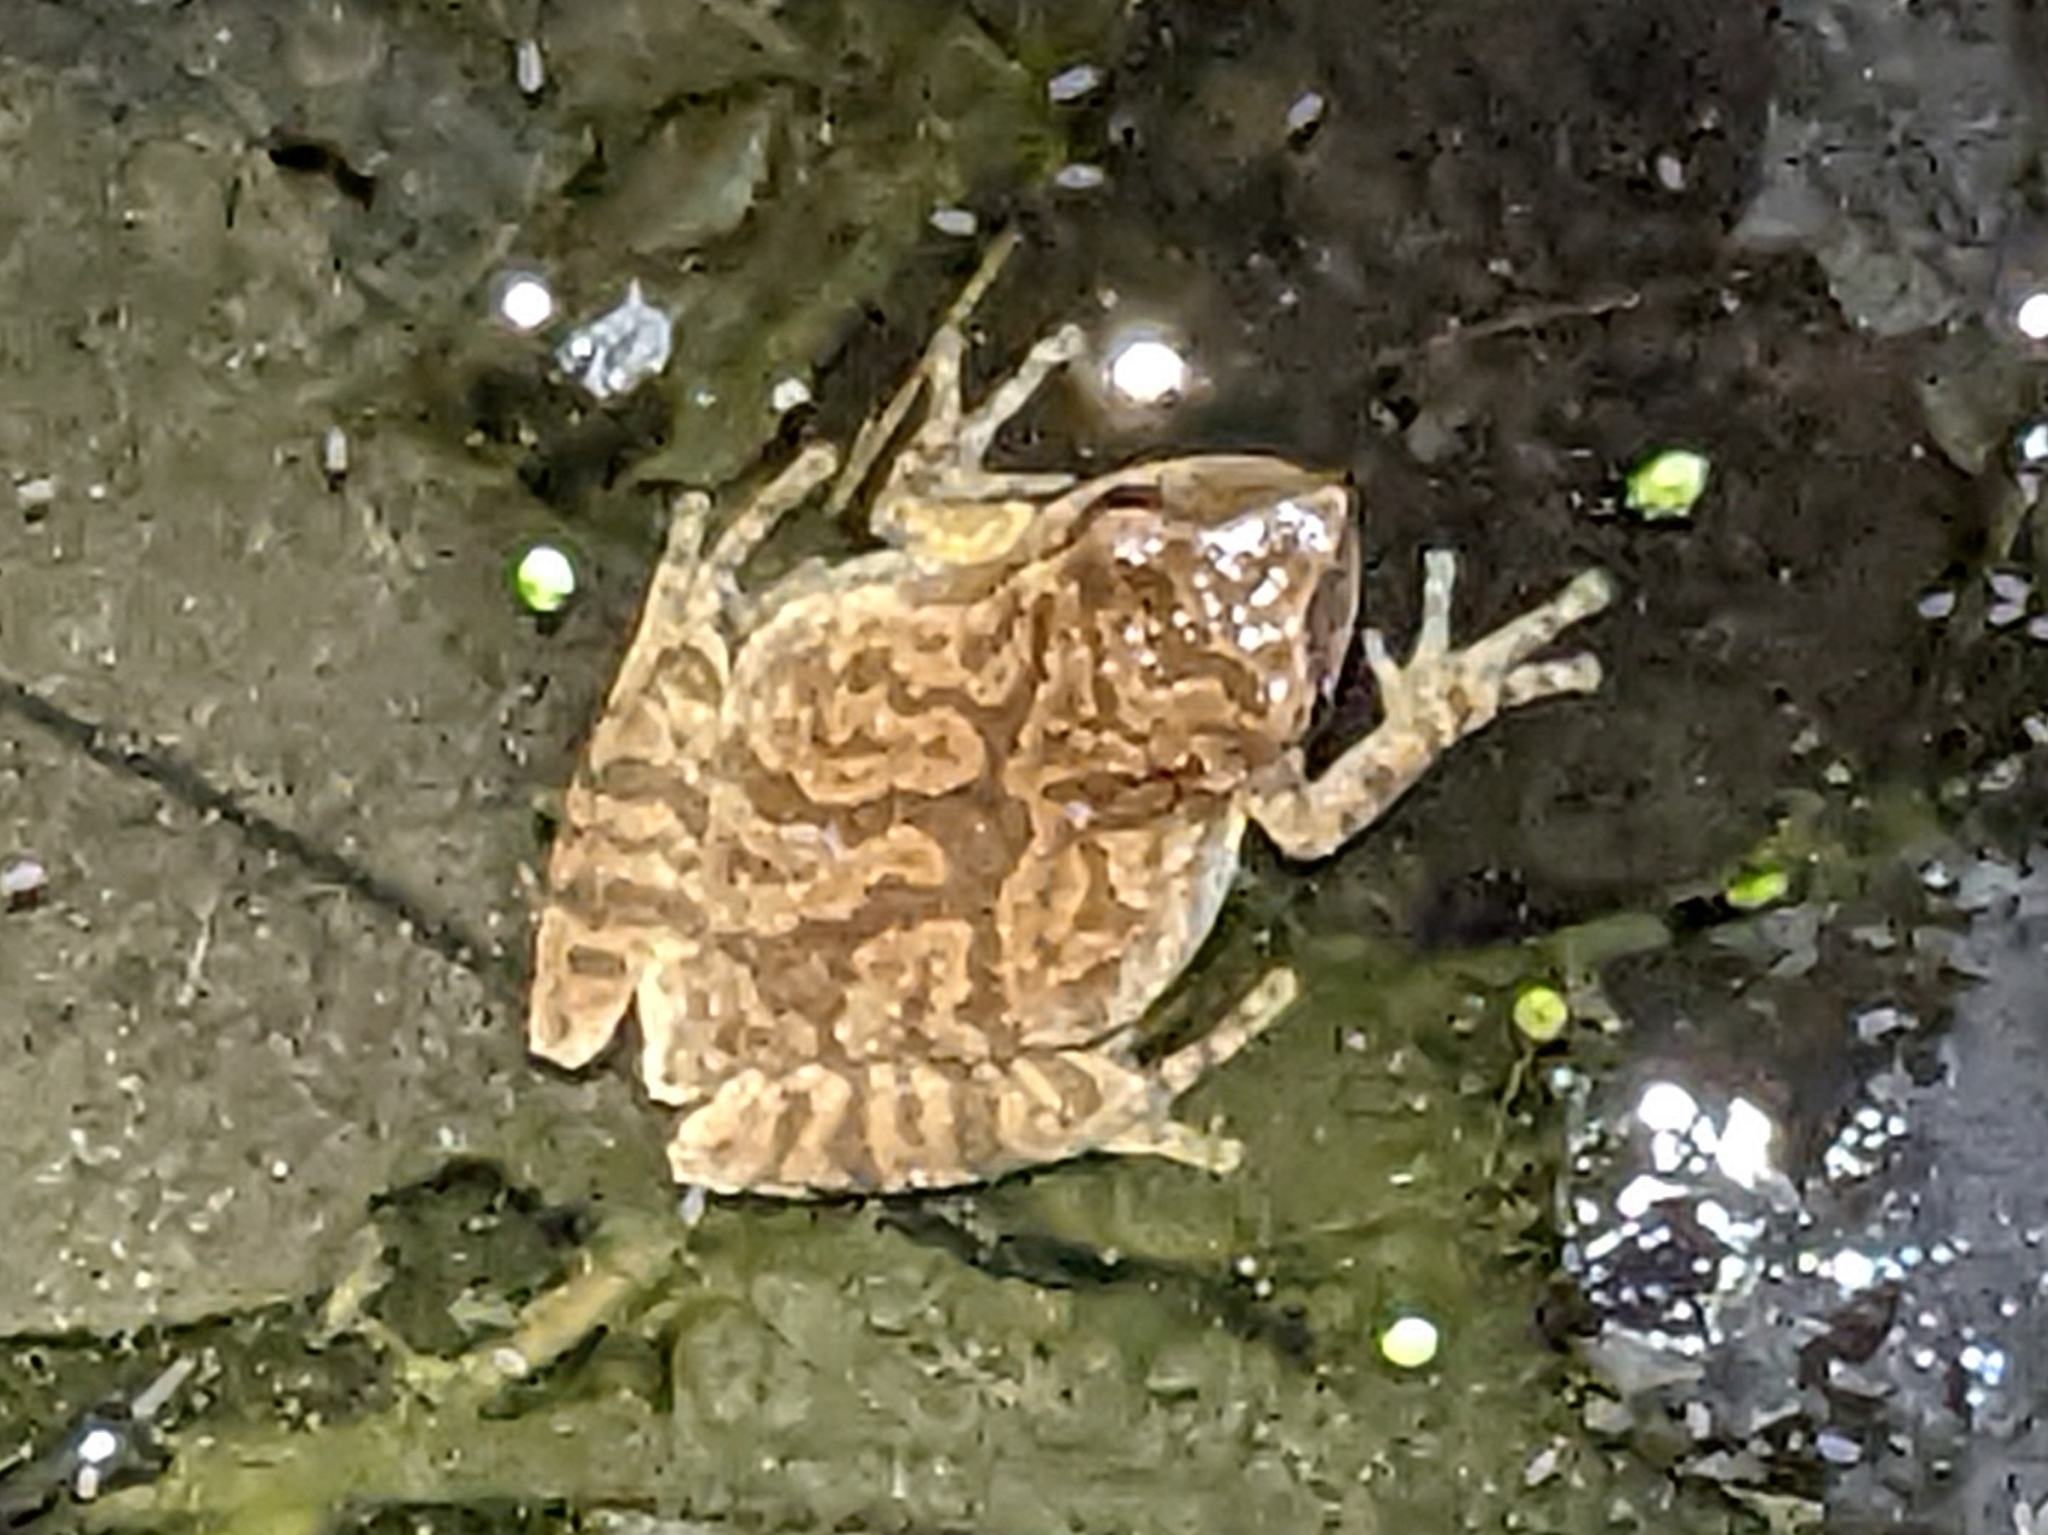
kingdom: Animalia
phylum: Chordata
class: Amphibia
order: Anura
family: Hylidae
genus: Pseudacris
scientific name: Pseudacris crucifer
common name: Spring peeper
